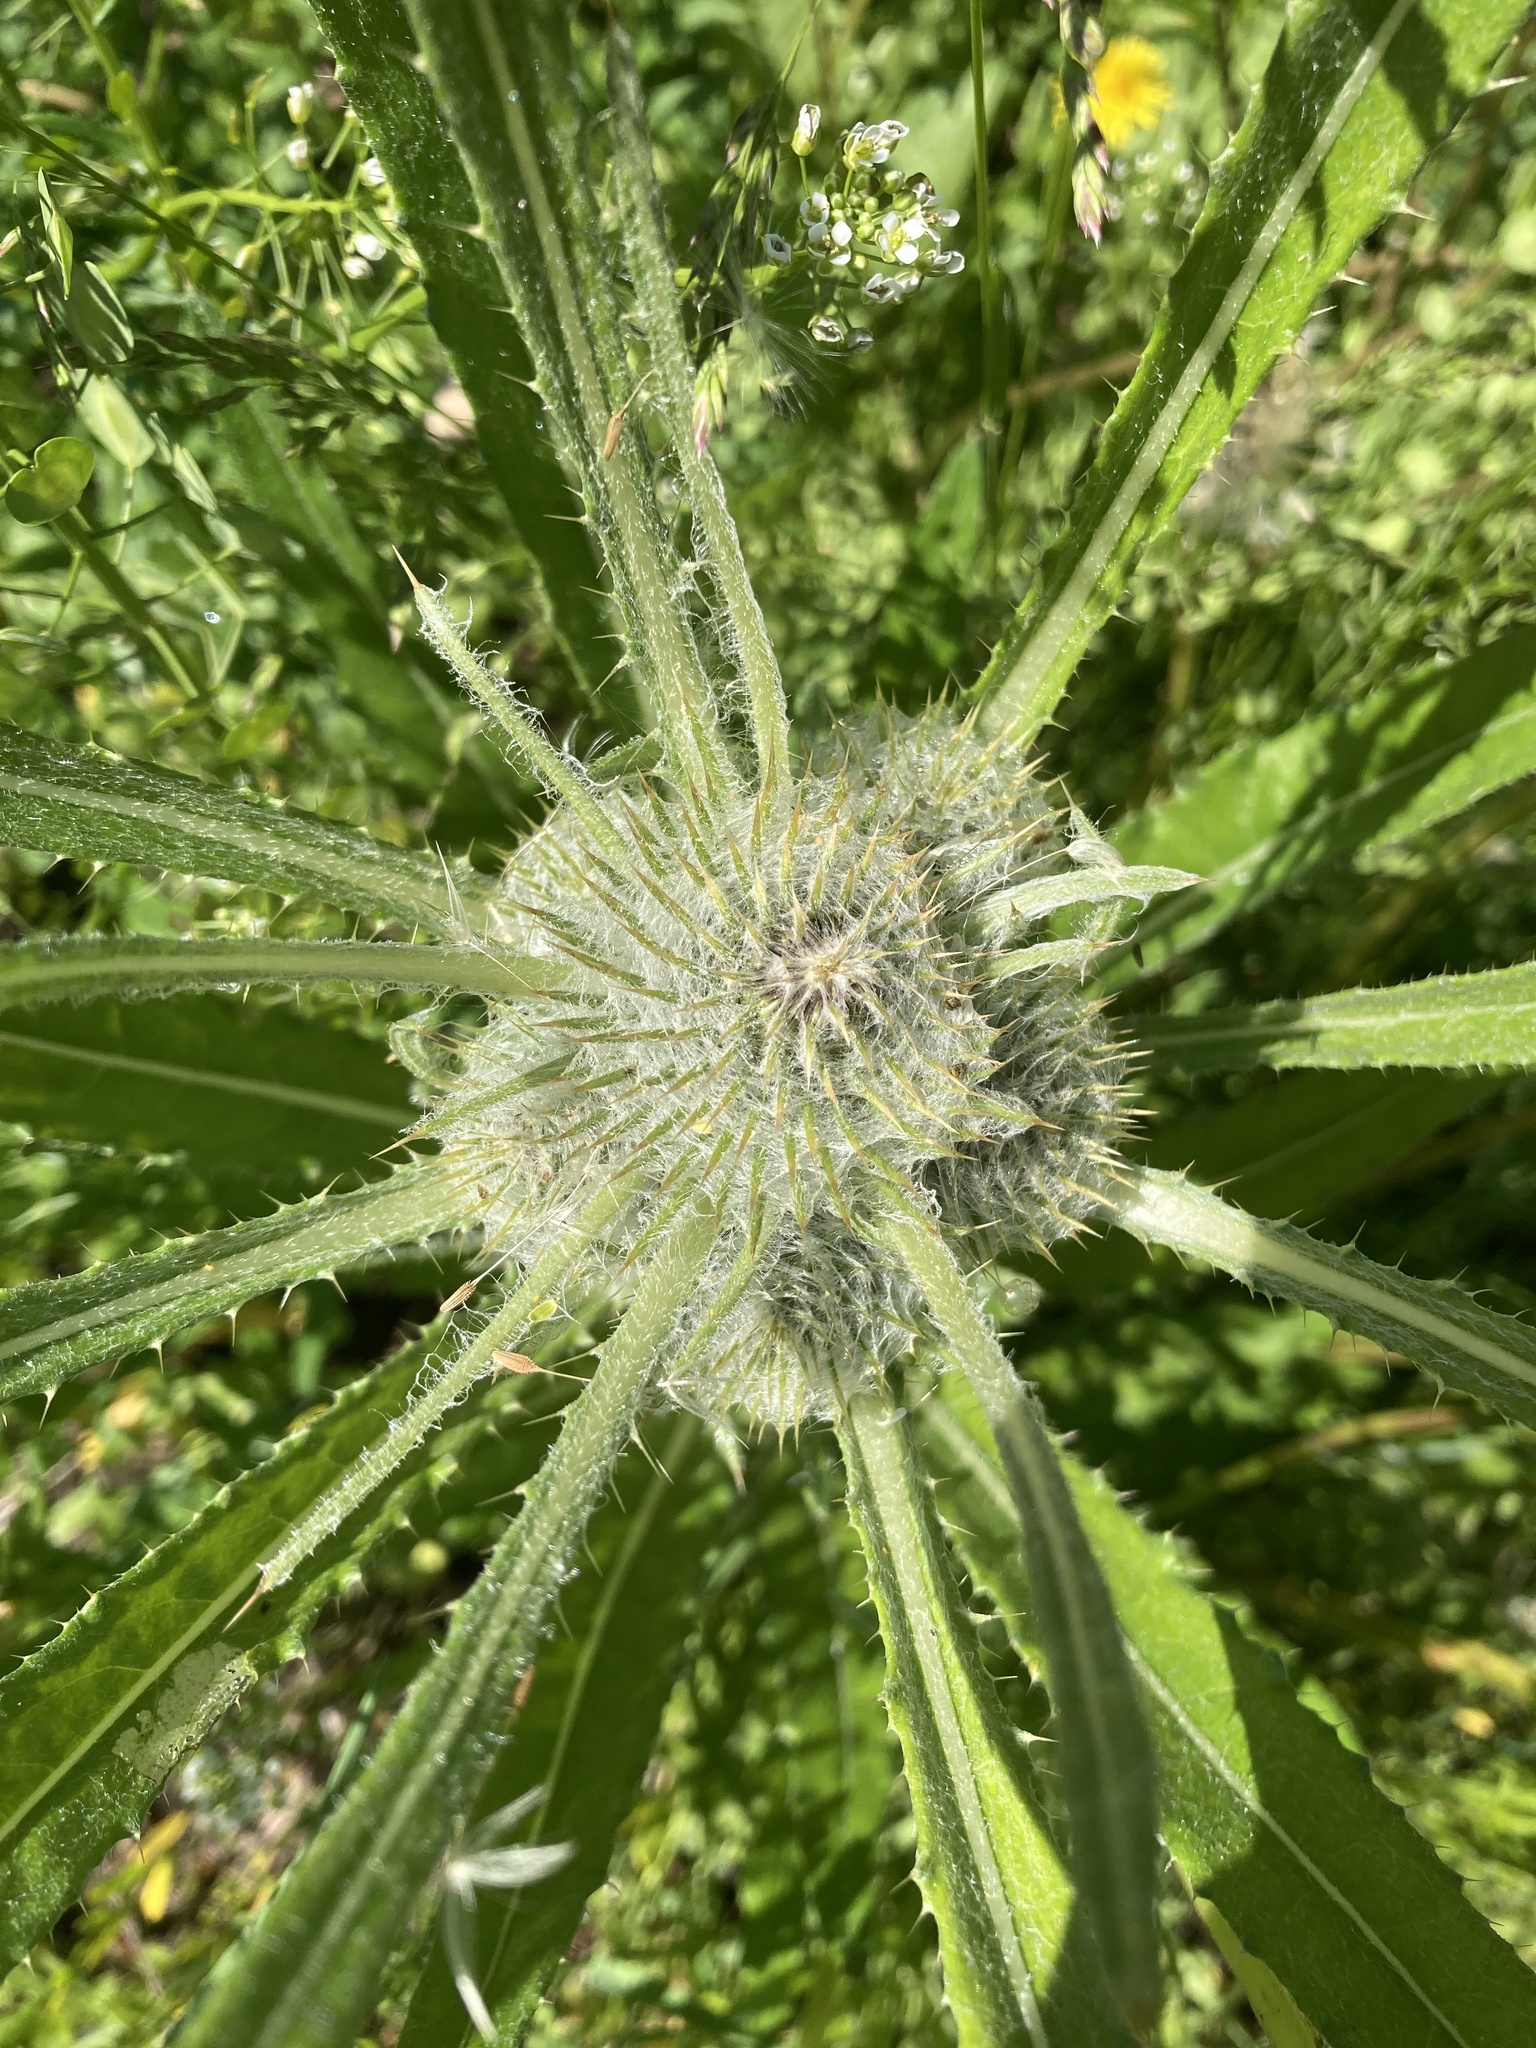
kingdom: Plantae
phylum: Tracheophyta
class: Magnoliopsida
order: Asterales
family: Asteraceae
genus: Cirsium
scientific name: Cirsium hookerianum
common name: Hooker's thistle
